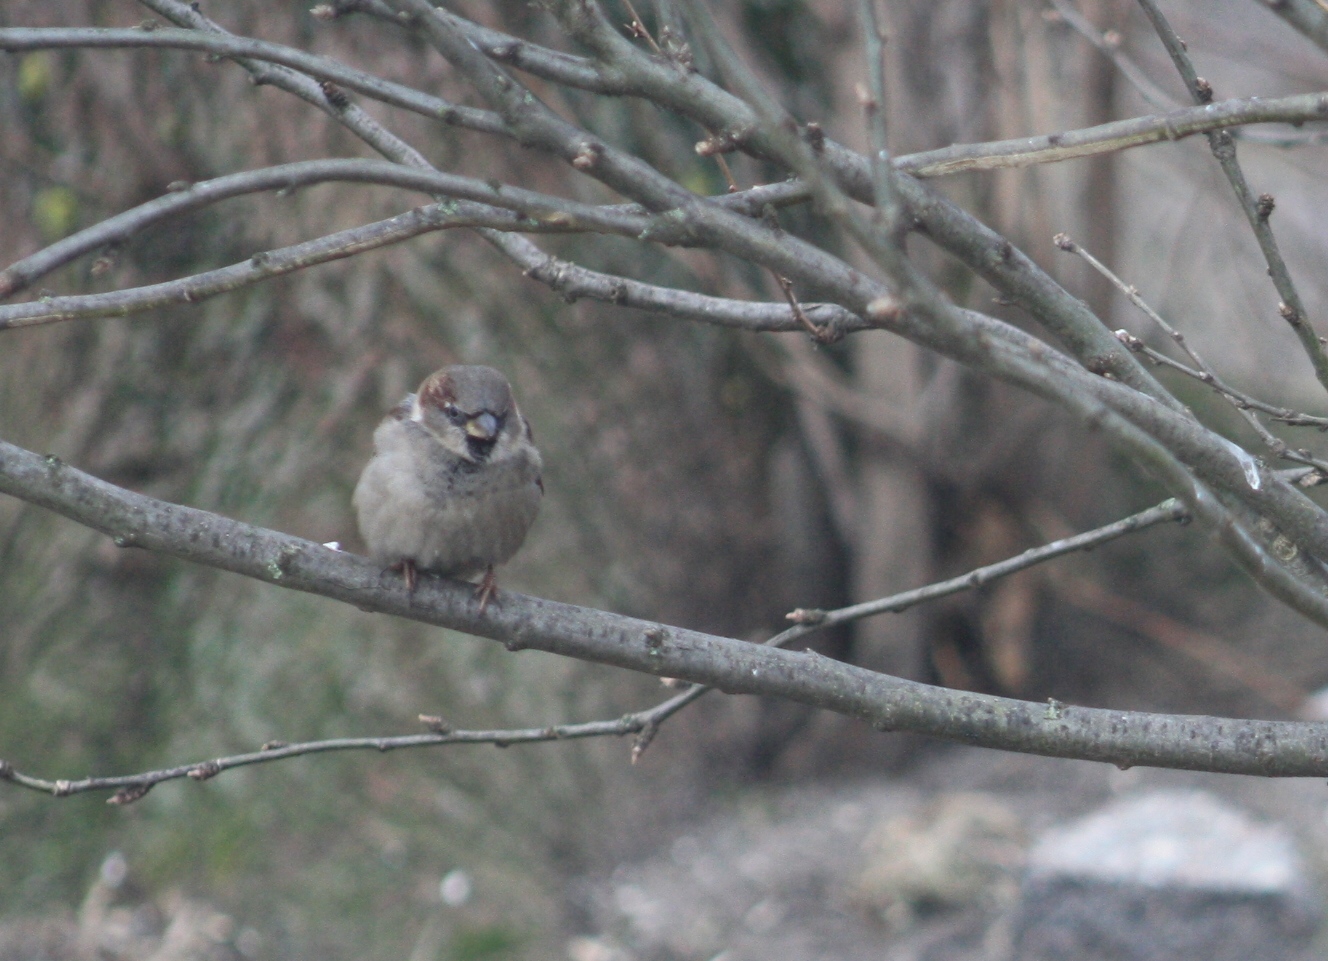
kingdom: Animalia
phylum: Chordata
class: Aves
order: Passeriformes
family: Passeridae
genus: Passer
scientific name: Passer domesticus
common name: House sparrow
